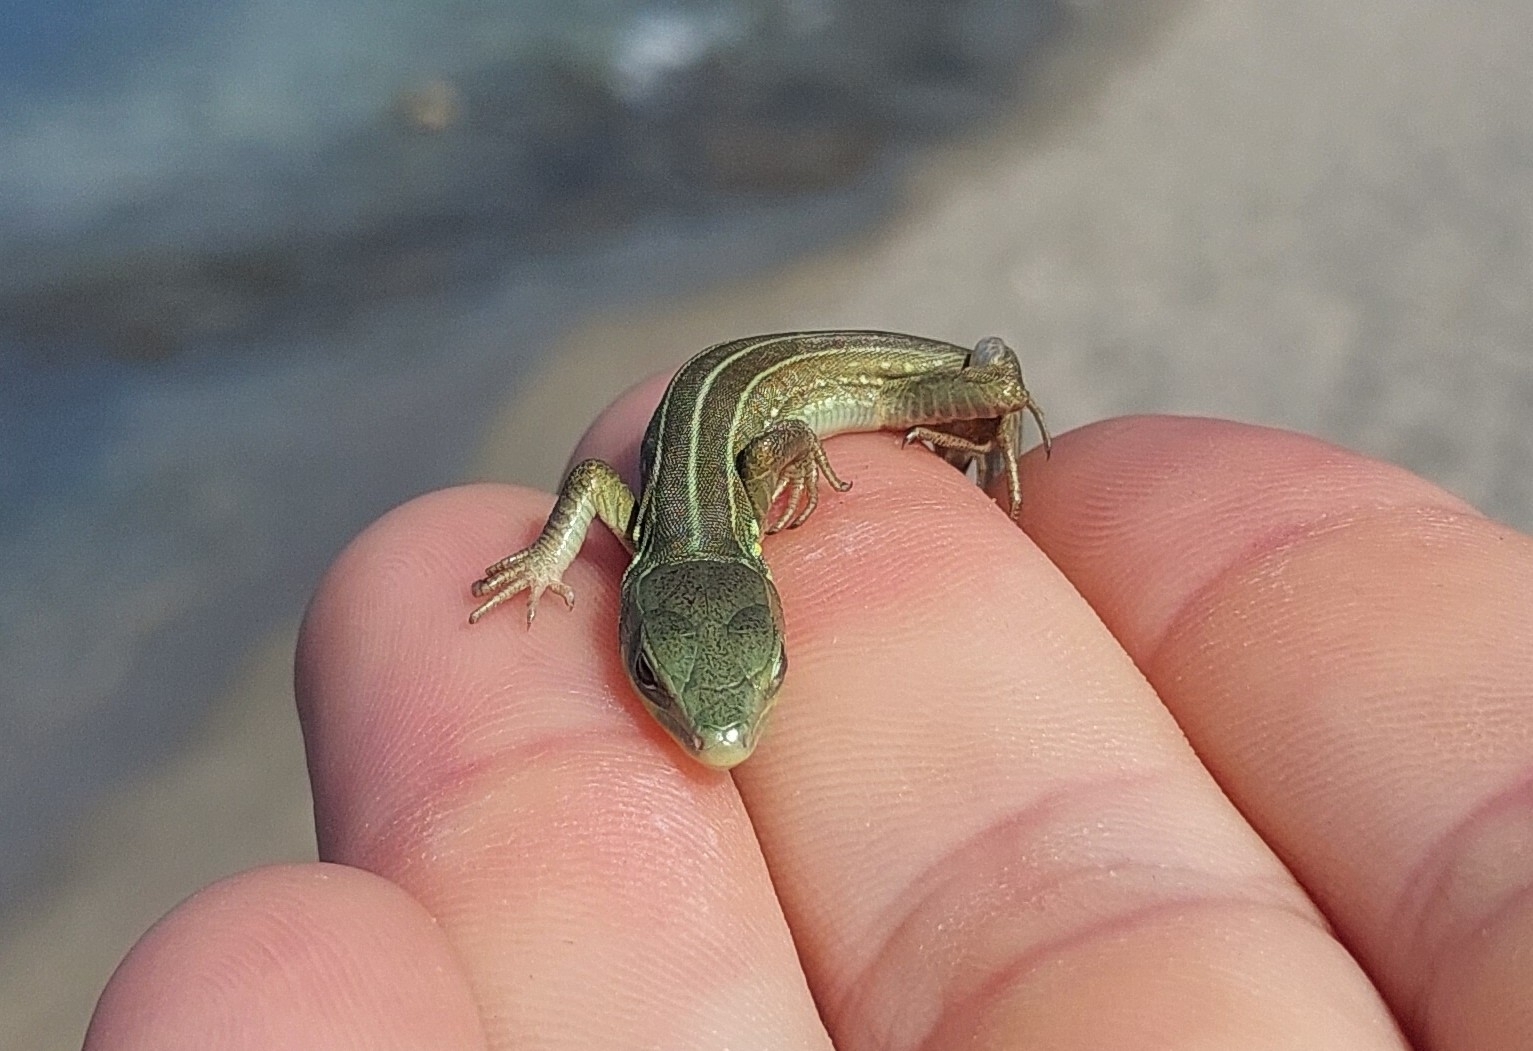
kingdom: Animalia
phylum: Chordata
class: Squamata
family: Lacertidae
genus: Lacerta
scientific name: Lacerta trilineata
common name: Balkan green lizard
